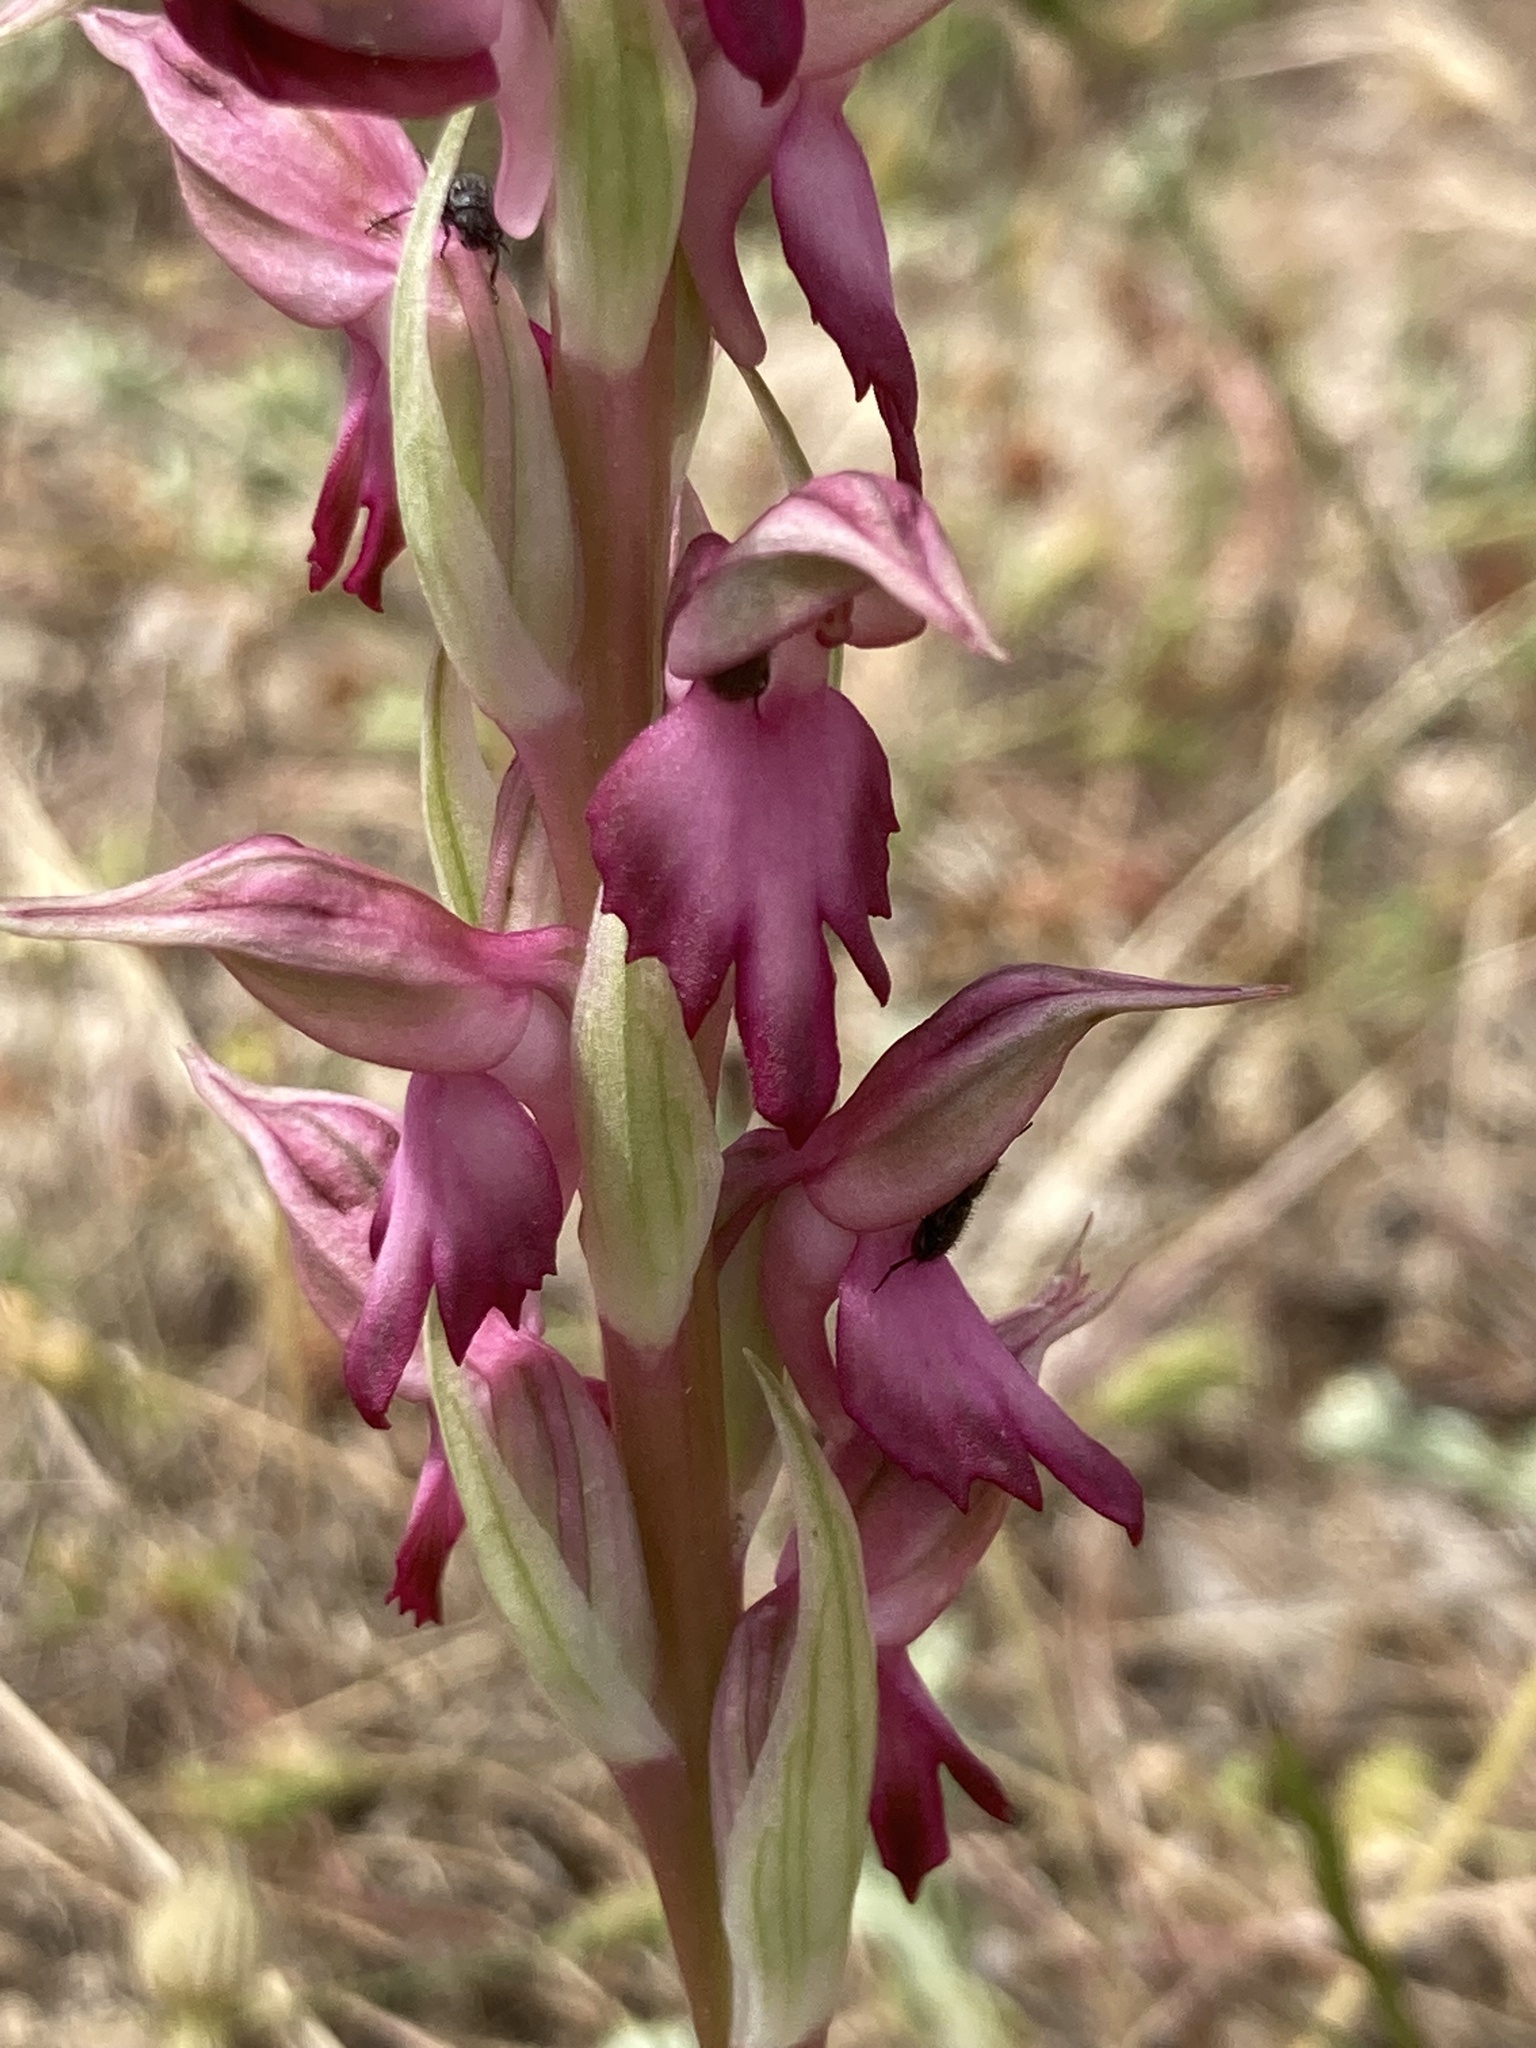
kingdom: Plantae
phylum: Tracheophyta
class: Liliopsida
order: Asparagales
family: Orchidaceae
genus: Anacamptis
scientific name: Anacamptis sancta
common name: Holy orchid
